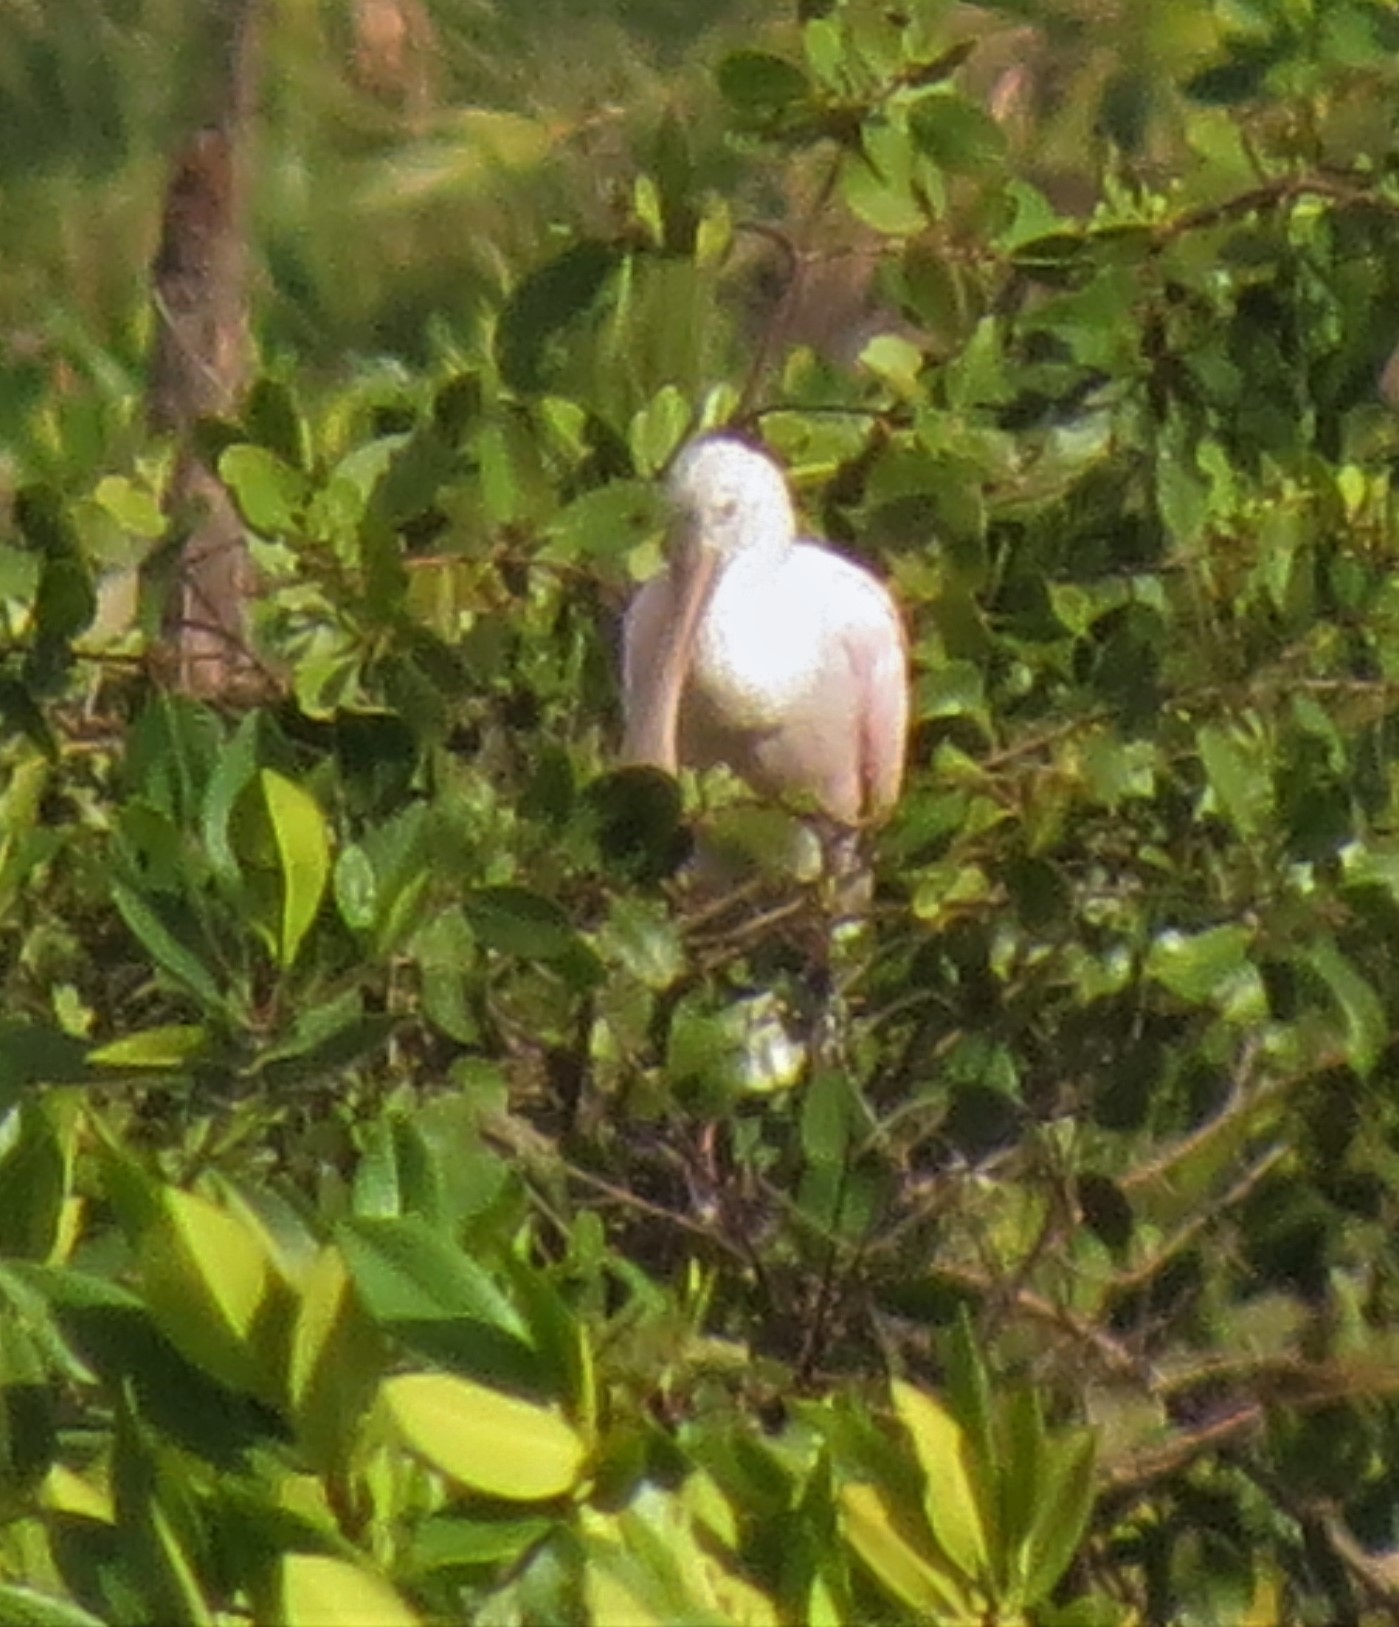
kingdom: Animalia
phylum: Chordata
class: Aves
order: Pelecaniformes
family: Threskiornithidae
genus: Platalea
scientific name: Platalea ajaja
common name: Roseate spoonbill
